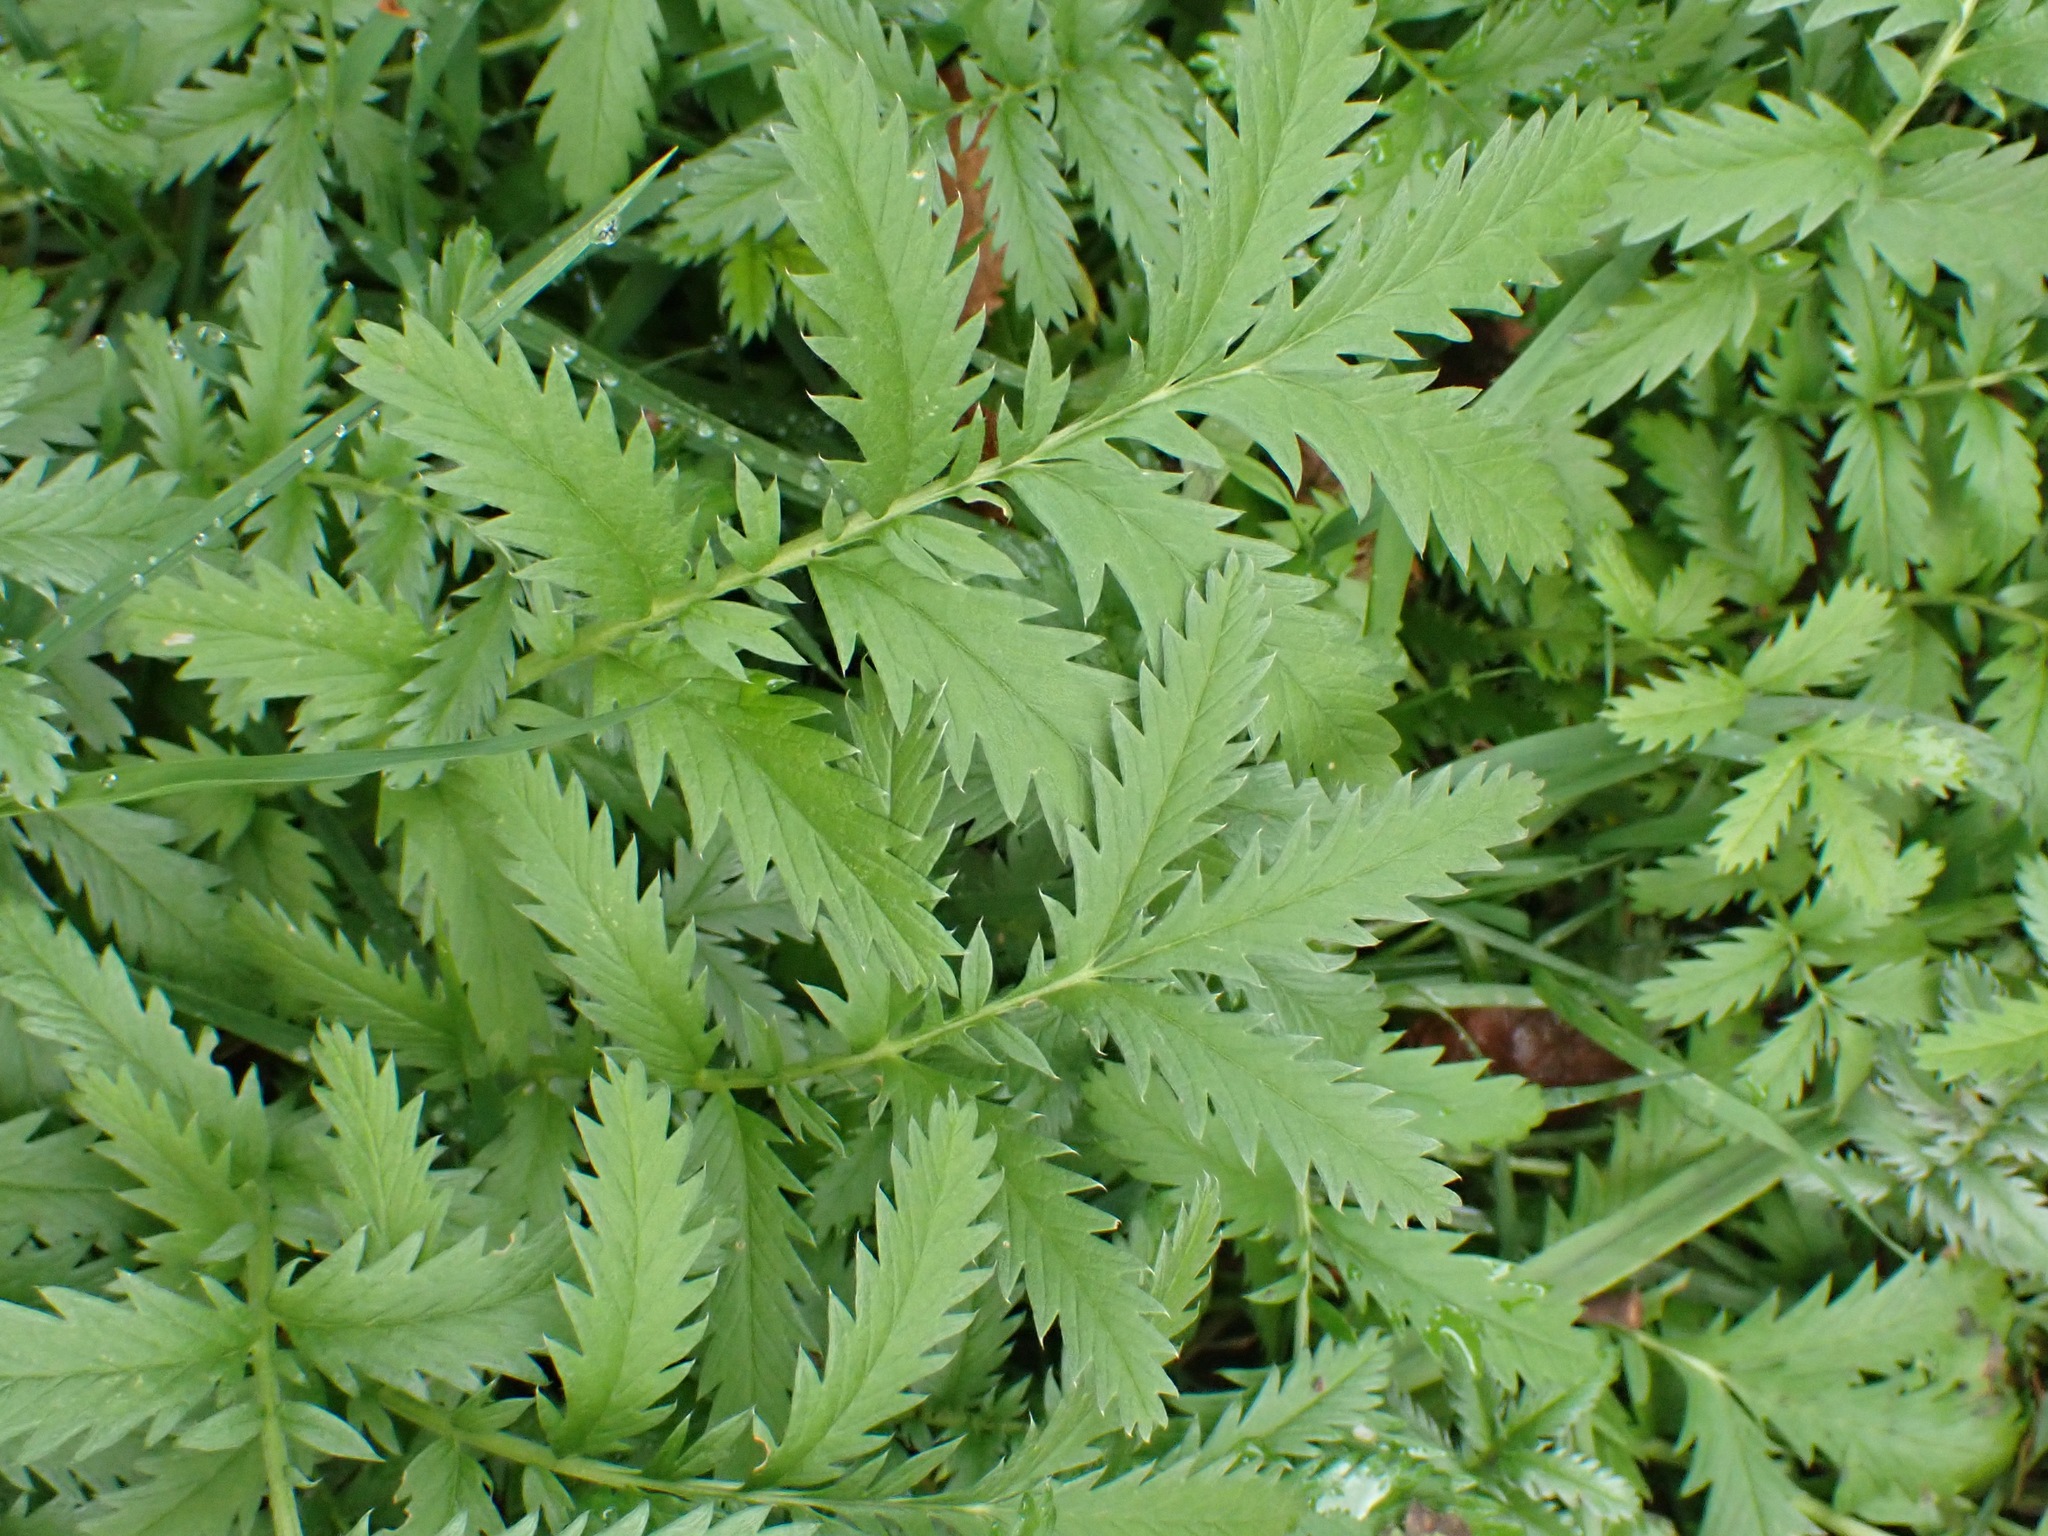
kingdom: Plantae
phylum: Tracheophyta
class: Magnoliopsida
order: Rosales
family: Rosaceae
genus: Argentina
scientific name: Argentina anserina
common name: Common silverweed
